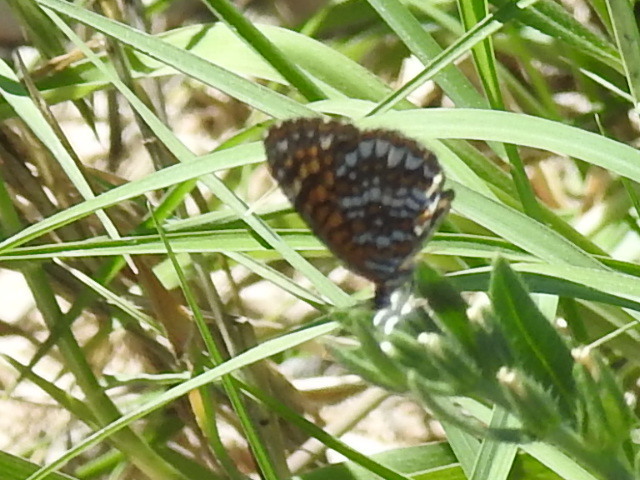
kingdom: Animalia
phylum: Arthropoda
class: Insecta
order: Lepidoptera
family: Nymphalidae
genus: Texola
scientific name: Texola elada
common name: Elada checkerspot
